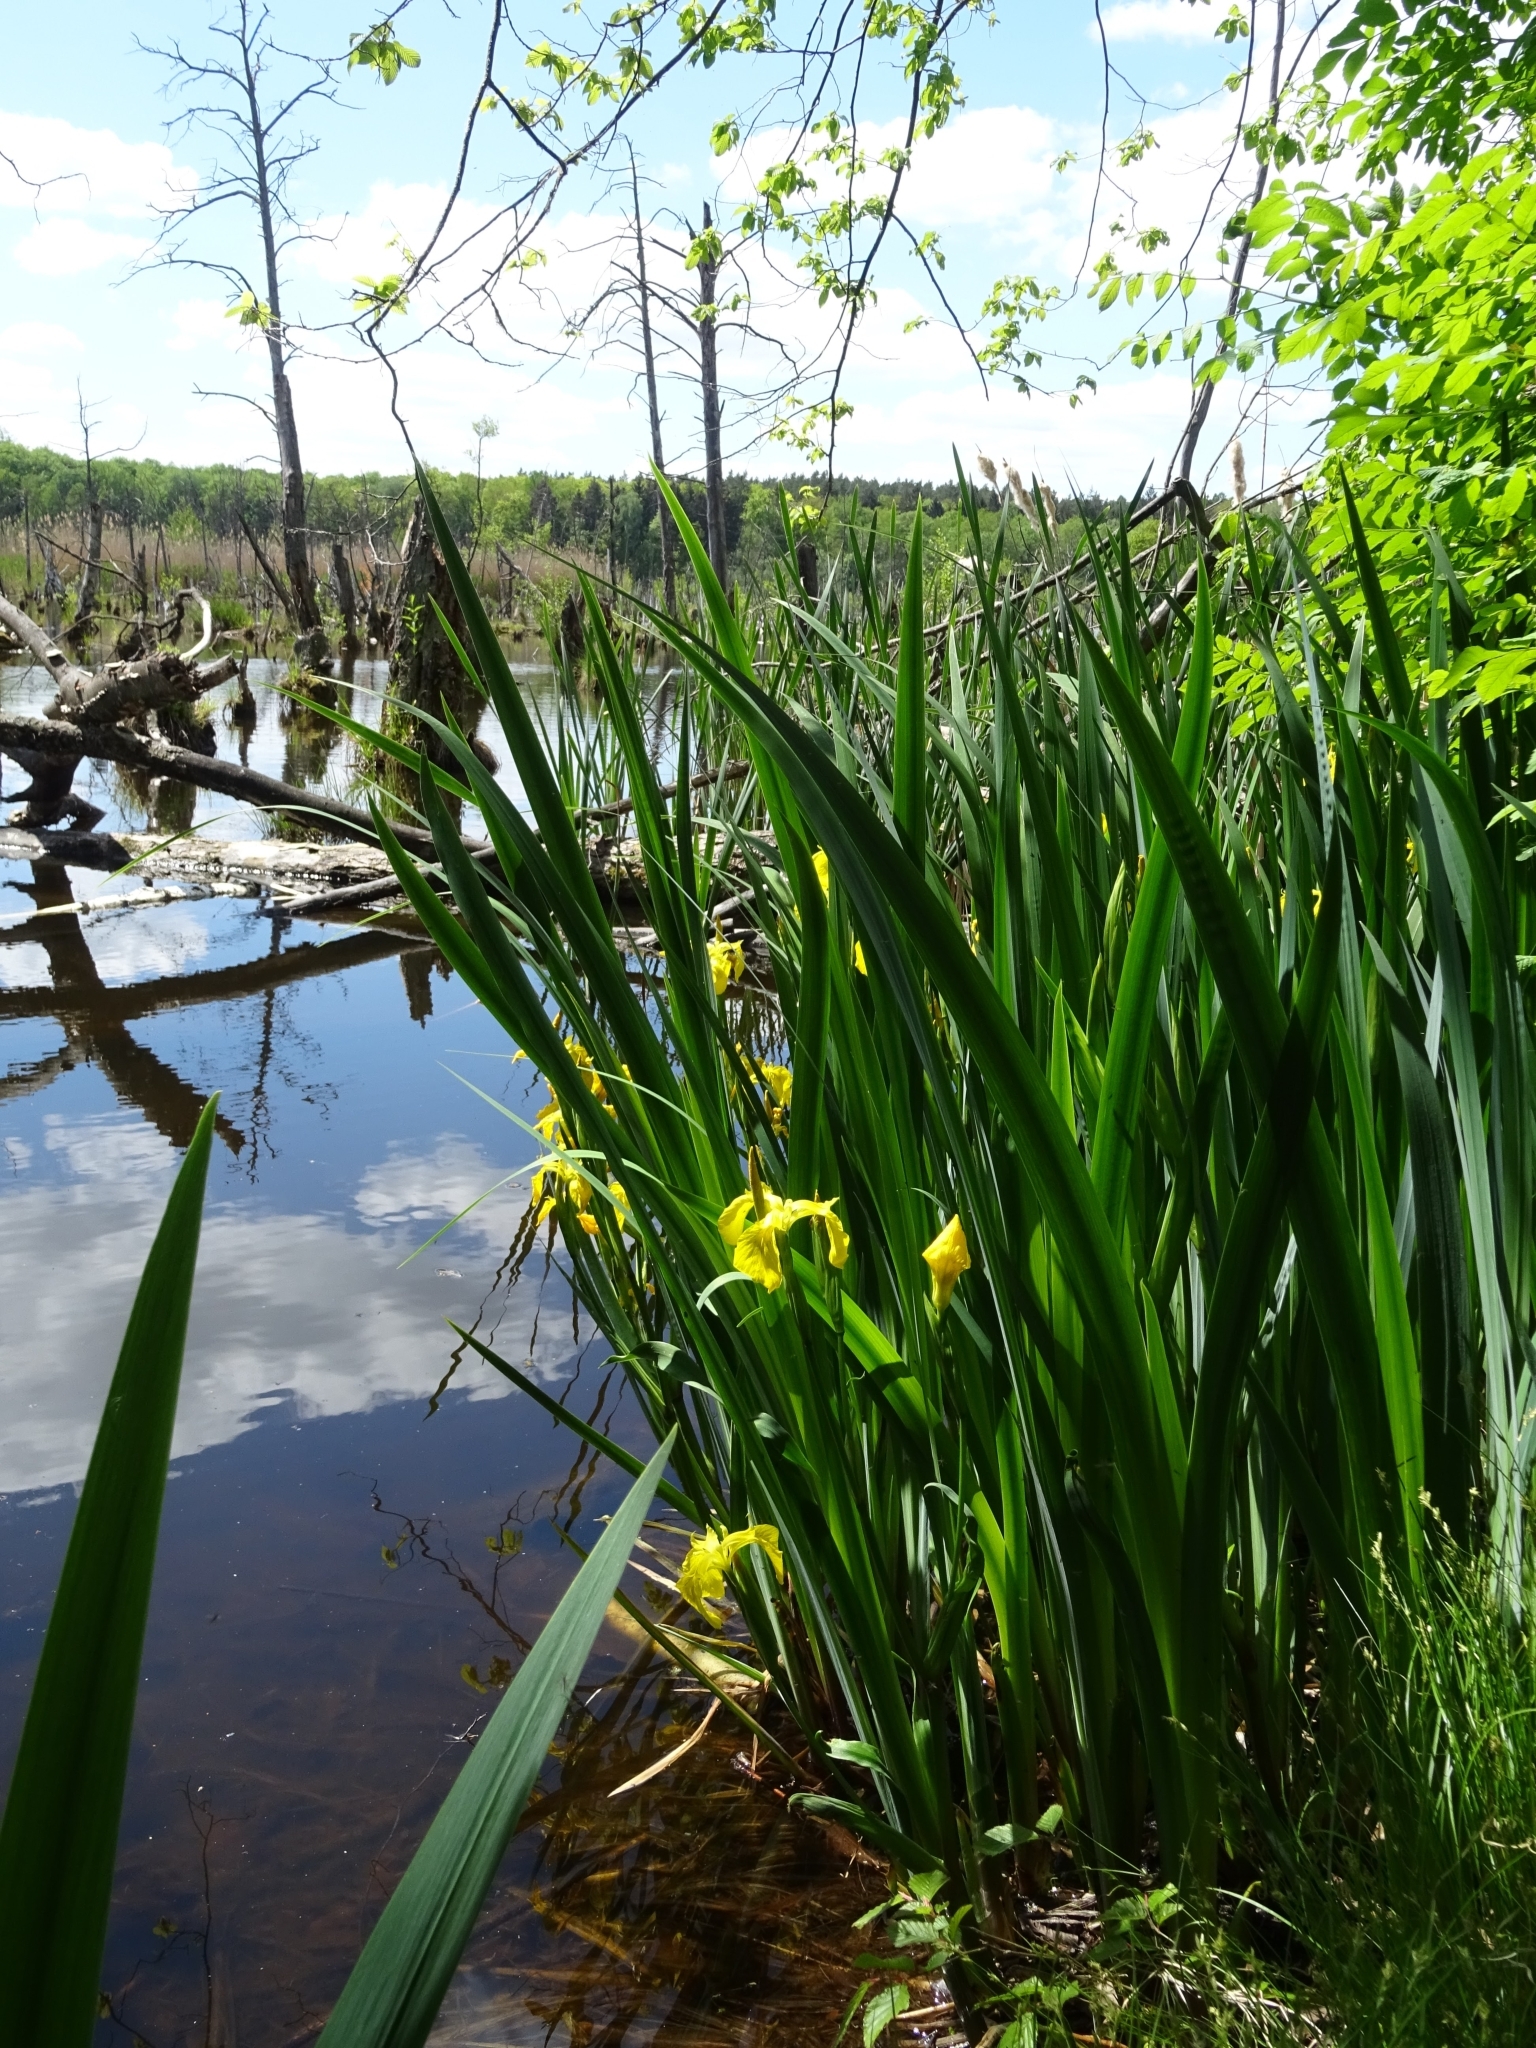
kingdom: Plantae
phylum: Tracheophyta
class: Liliopsida
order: Asparagales
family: Iridaceae
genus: Iris
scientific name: Iris pseudacorus
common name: Yellow flag
